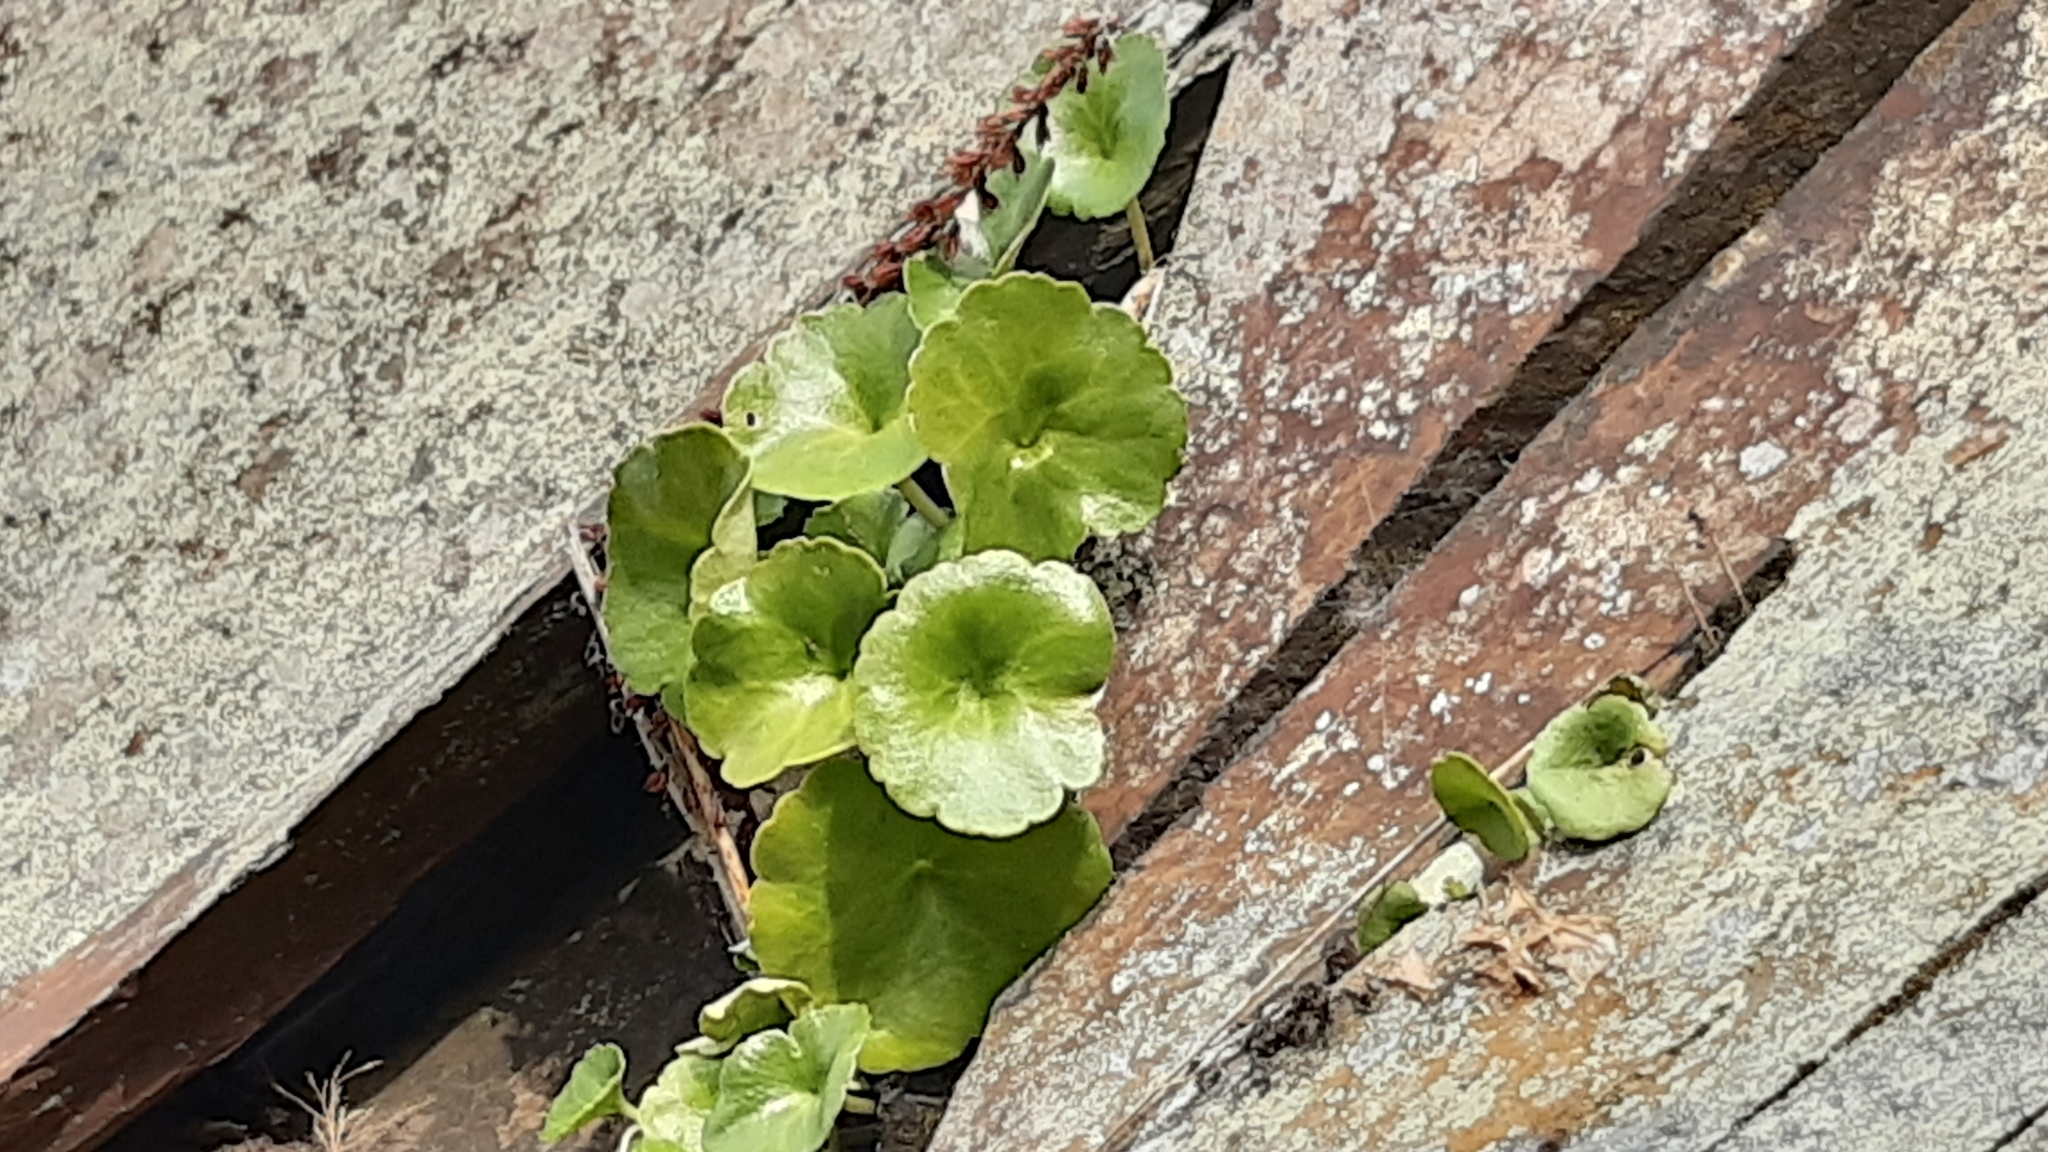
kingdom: Plantae
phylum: Tracheophyta
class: Magnoliopsida
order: Saxifragales
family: Crassulaceae
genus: Umbilicus
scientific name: Umbilicus rupestris
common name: Navelwort
